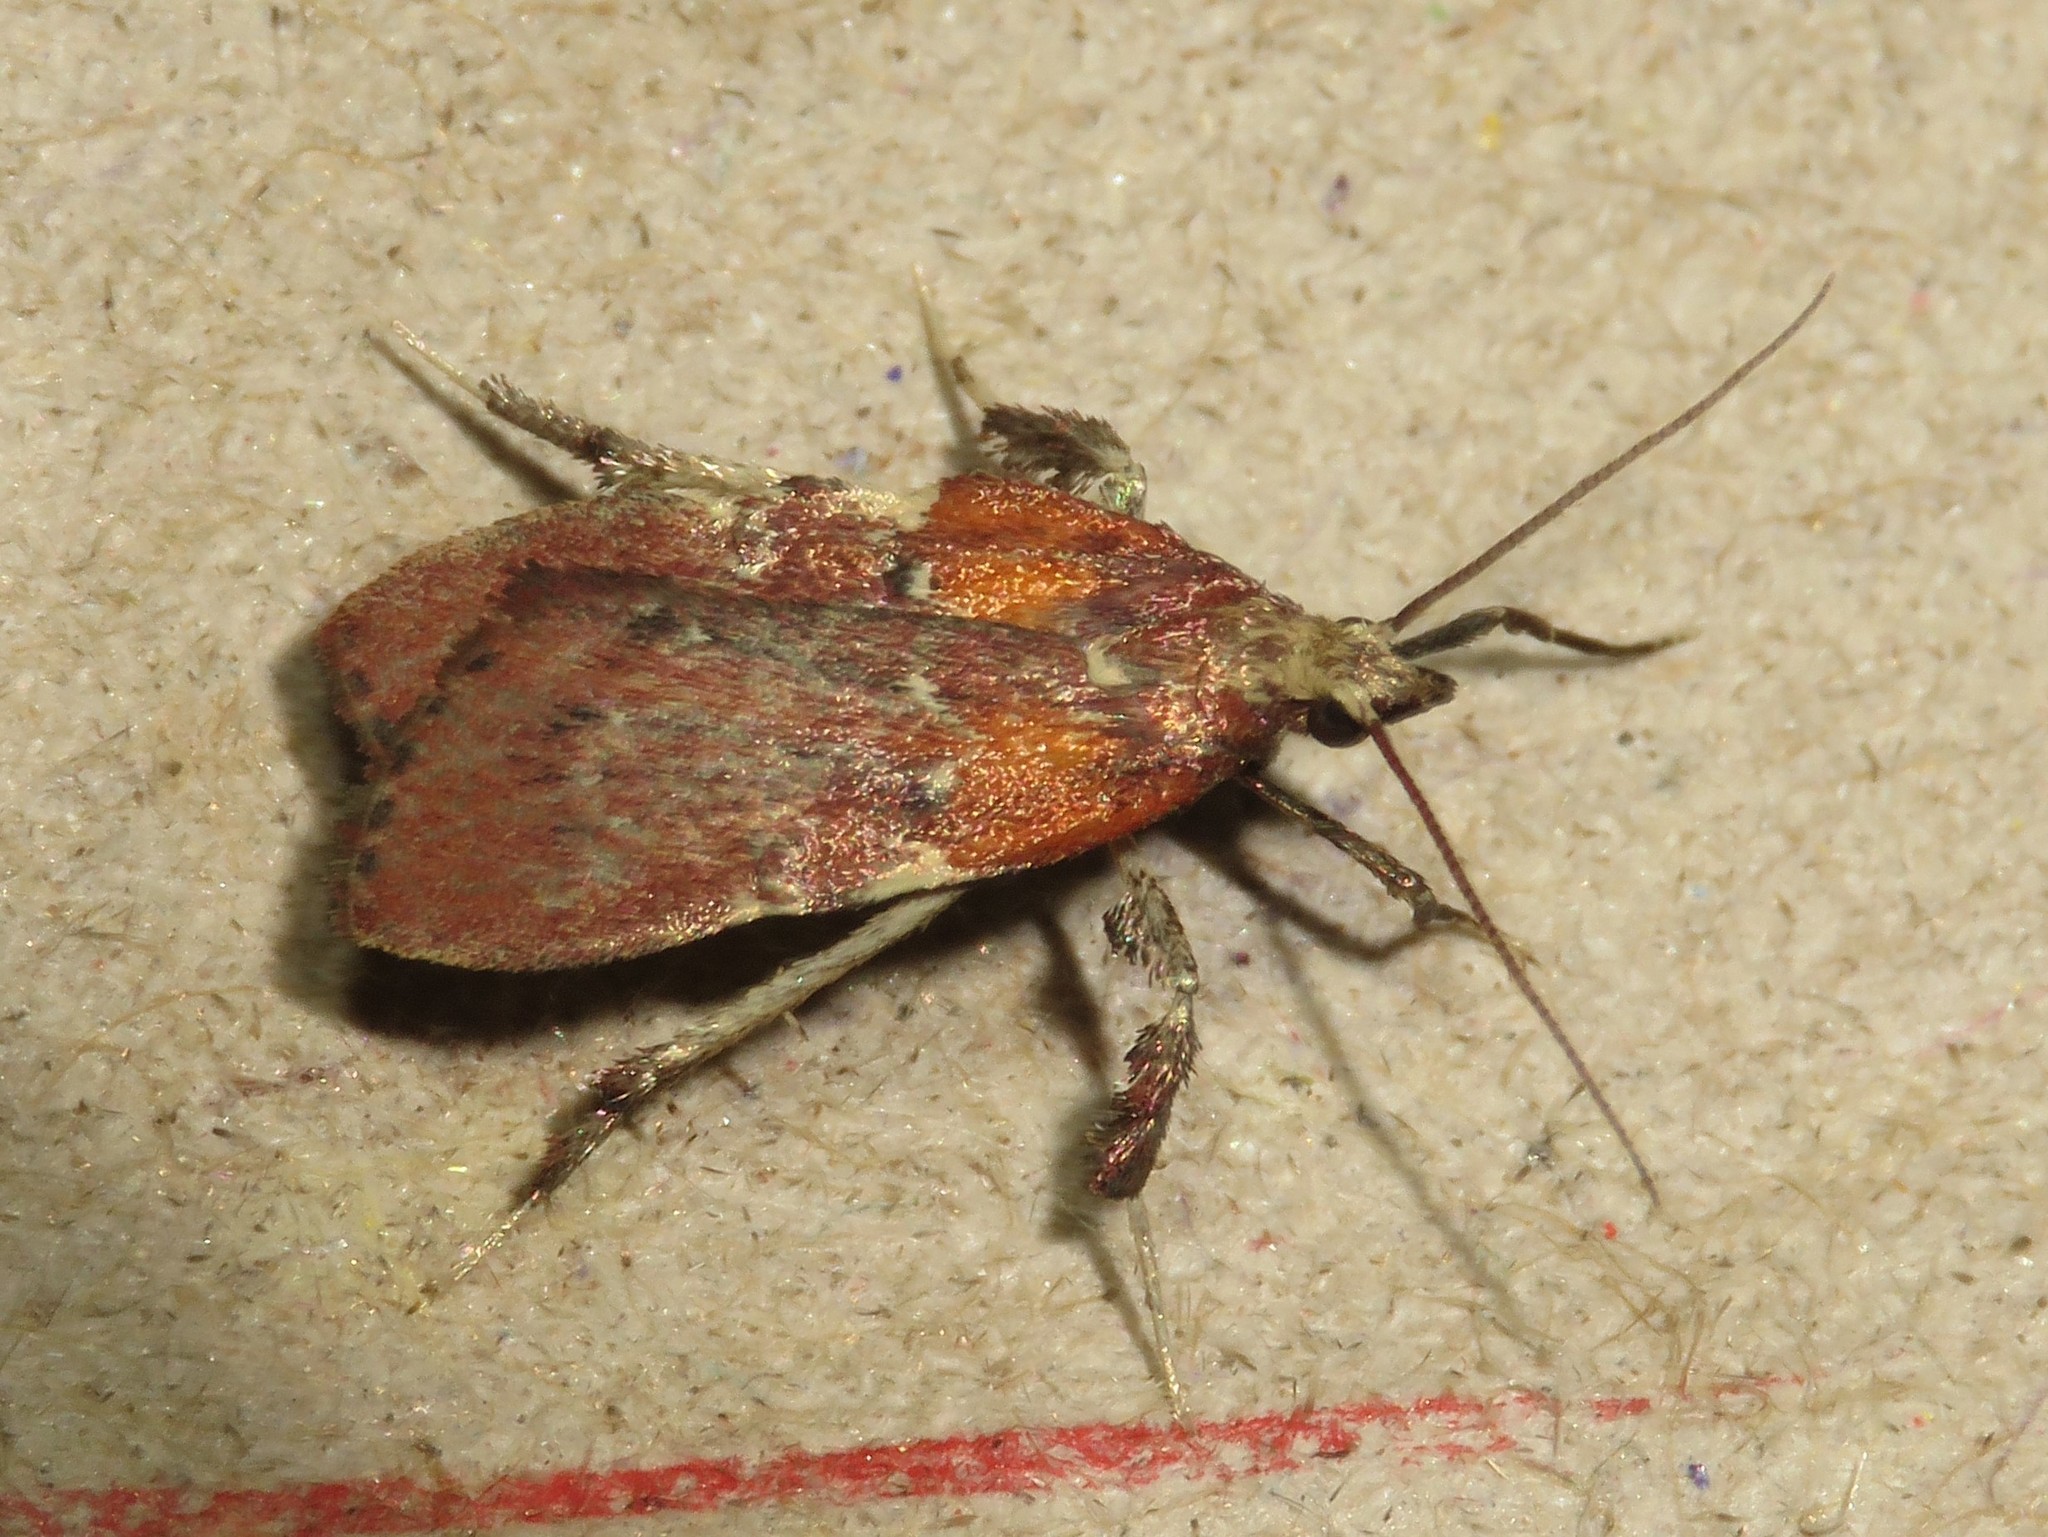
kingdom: Animalia
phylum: Arthropoda
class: Insecta
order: Lepidoptera
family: Pyralidae
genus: Galasa
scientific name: Galasa nigrinodis
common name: Boxwood leaftier moth
